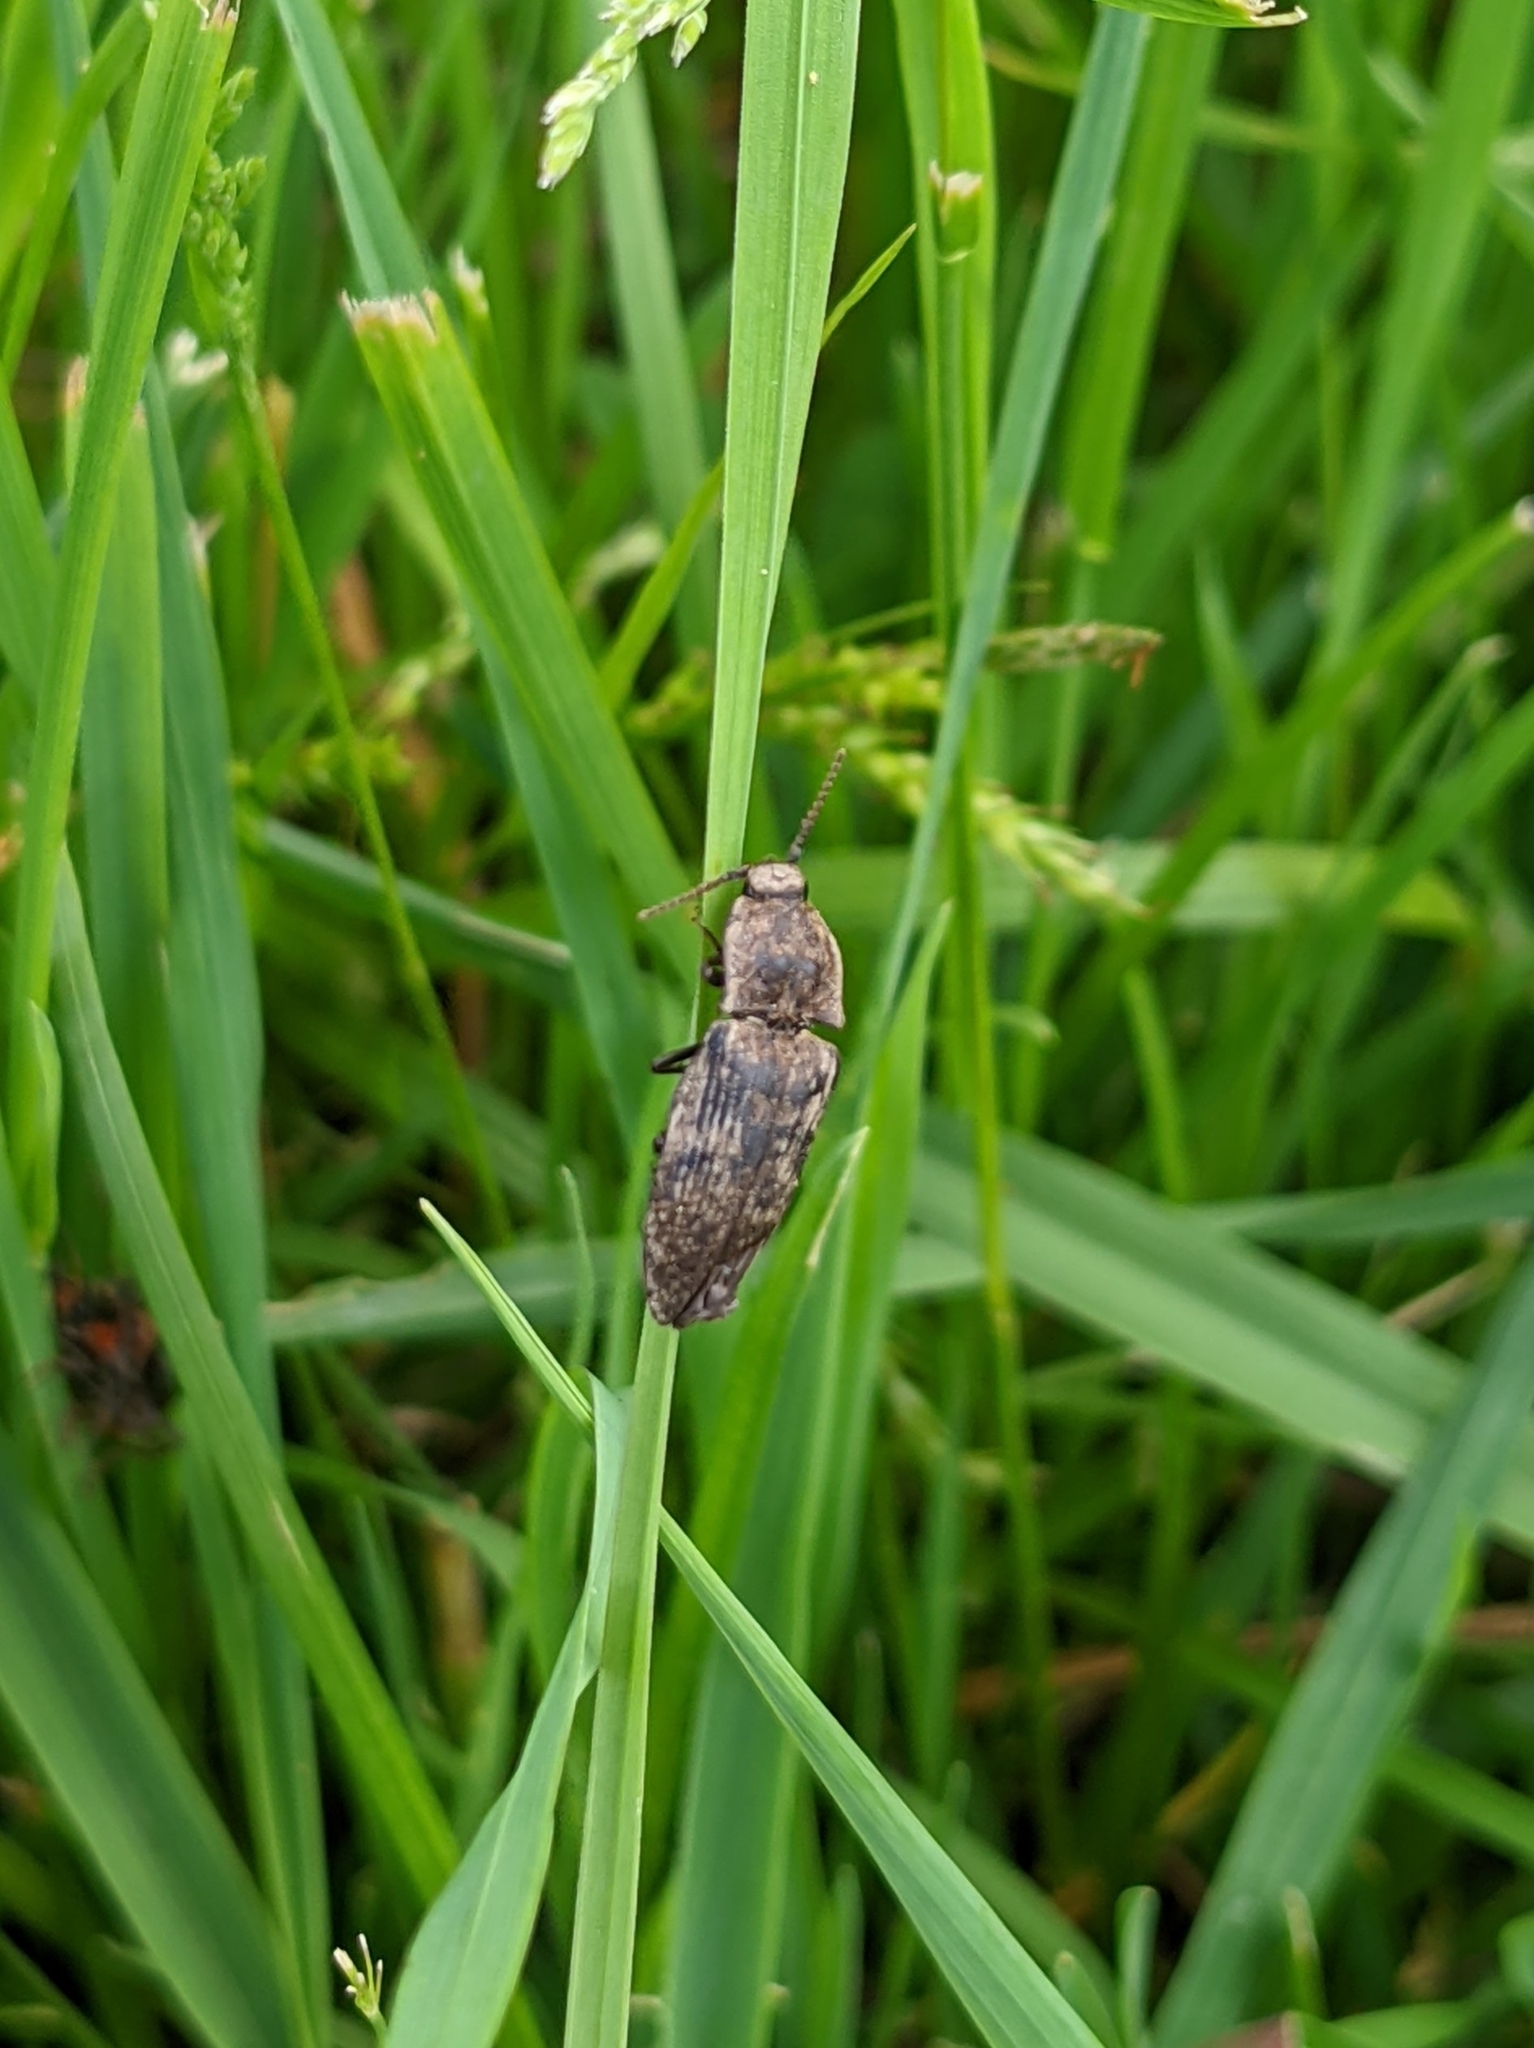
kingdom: Animalia
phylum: Arthropoda
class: Insecta
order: Coleoptera
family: Elateridae
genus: Agrypnus
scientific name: Agrypnus murinus
